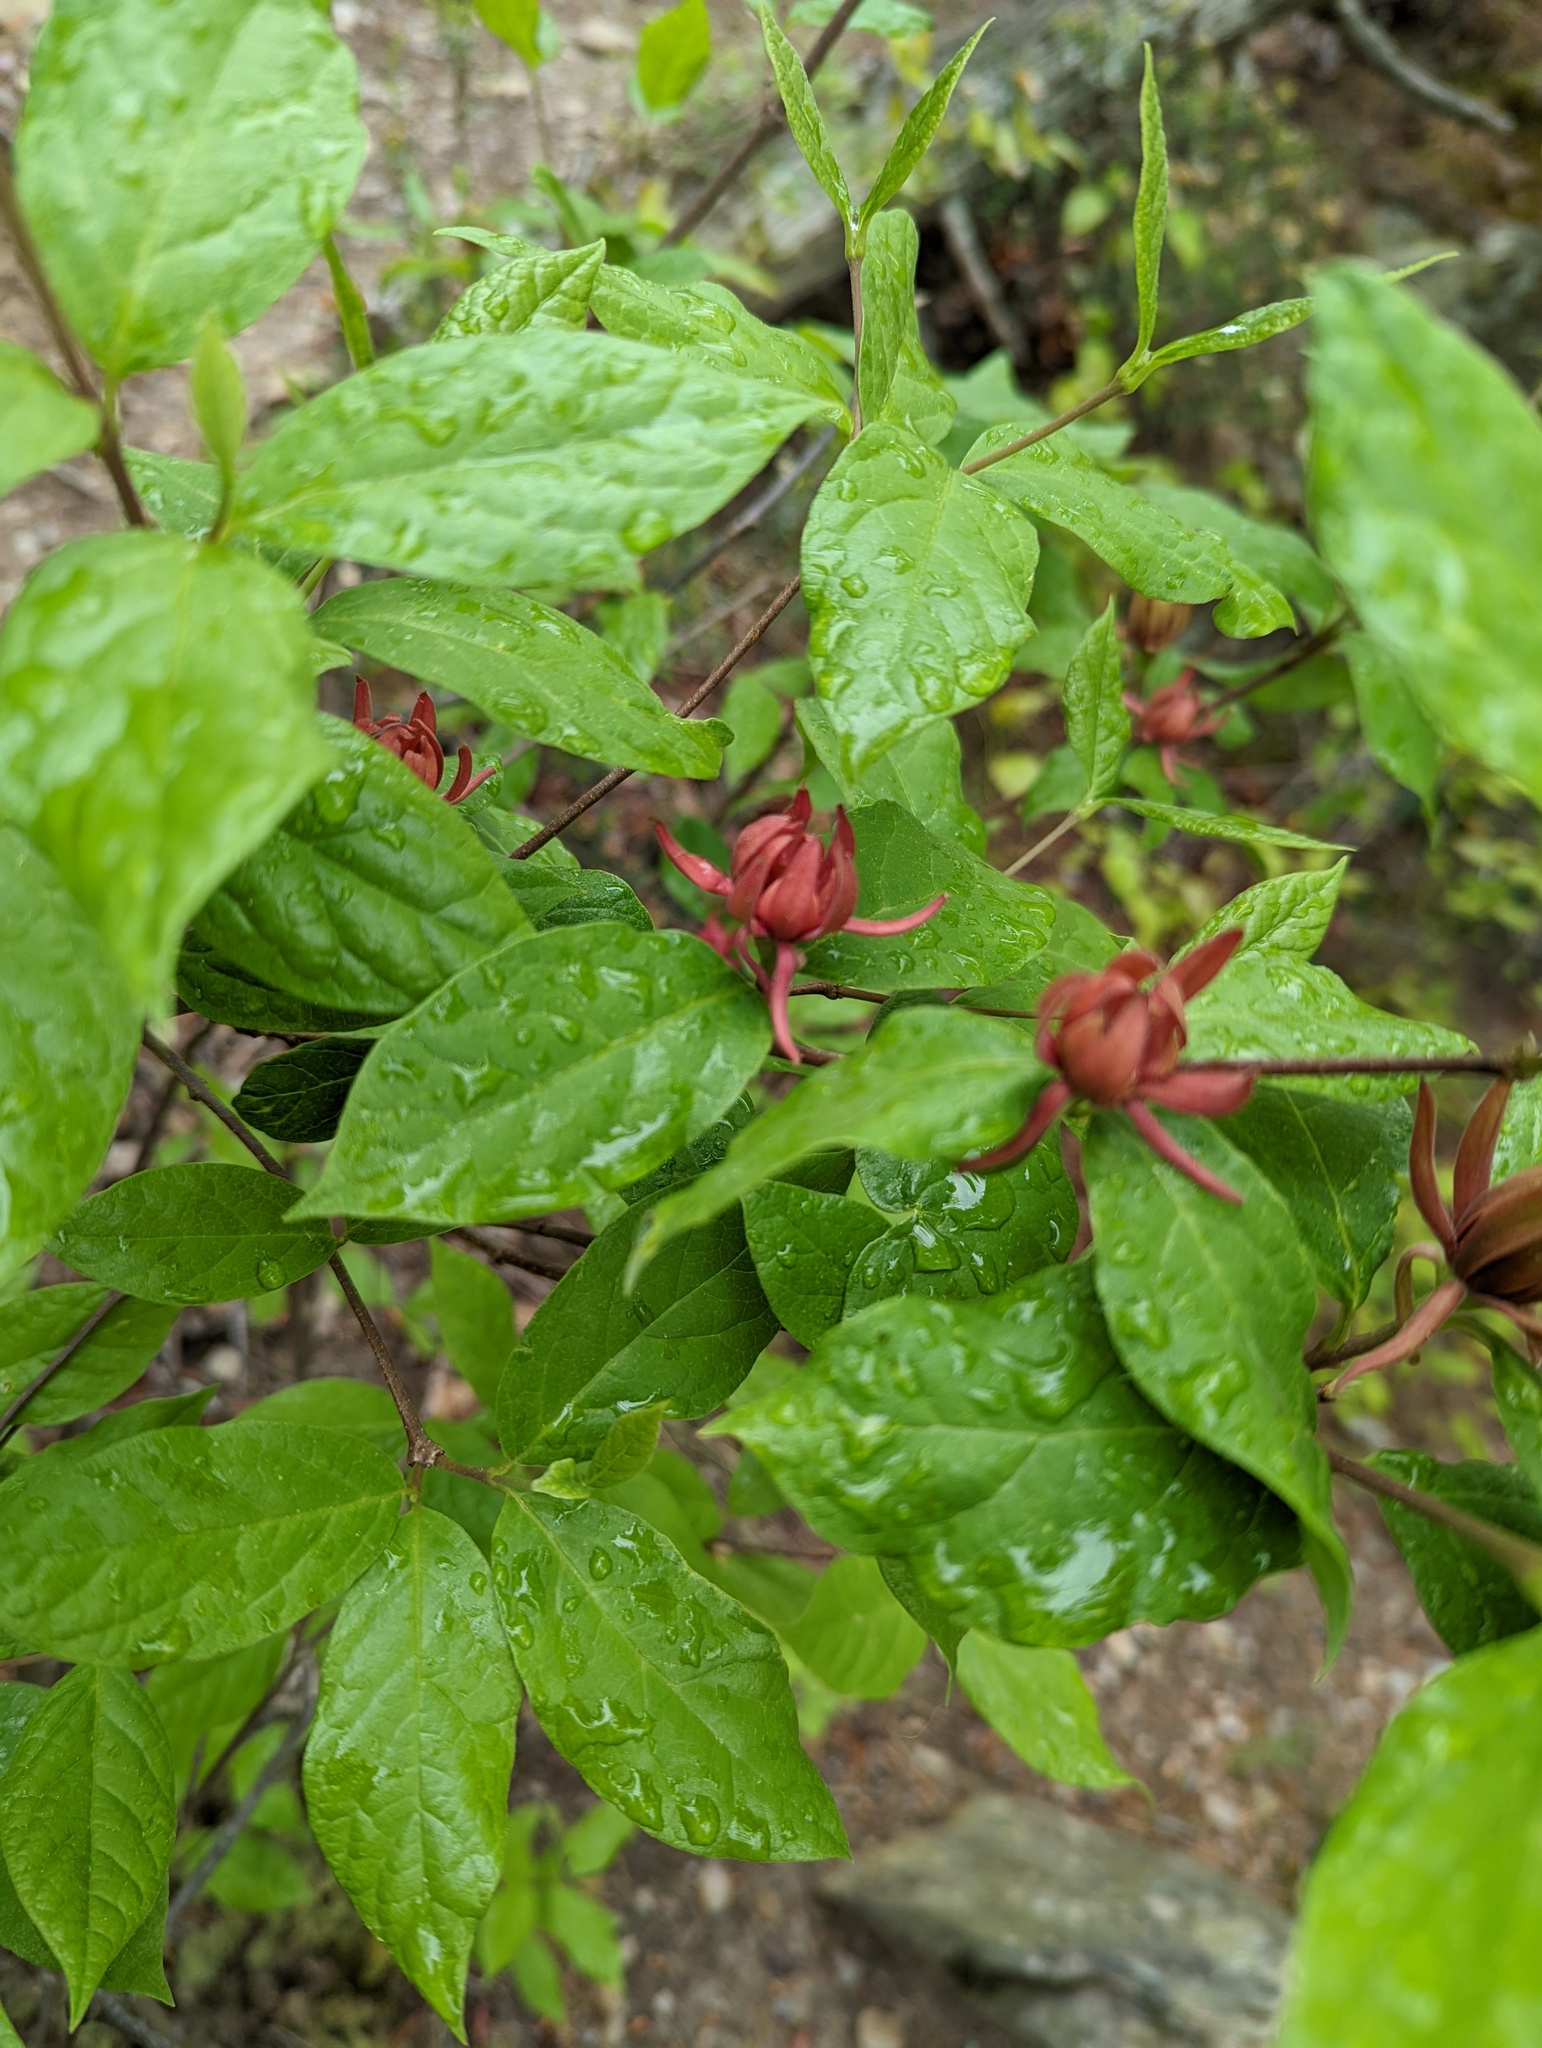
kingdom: Plantae
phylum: Tracheophyta
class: Magnoliopsida
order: Laurales
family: Calycanthaceae
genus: Calycanthus
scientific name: Calycanthus floridus
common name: Carolina-allspice
